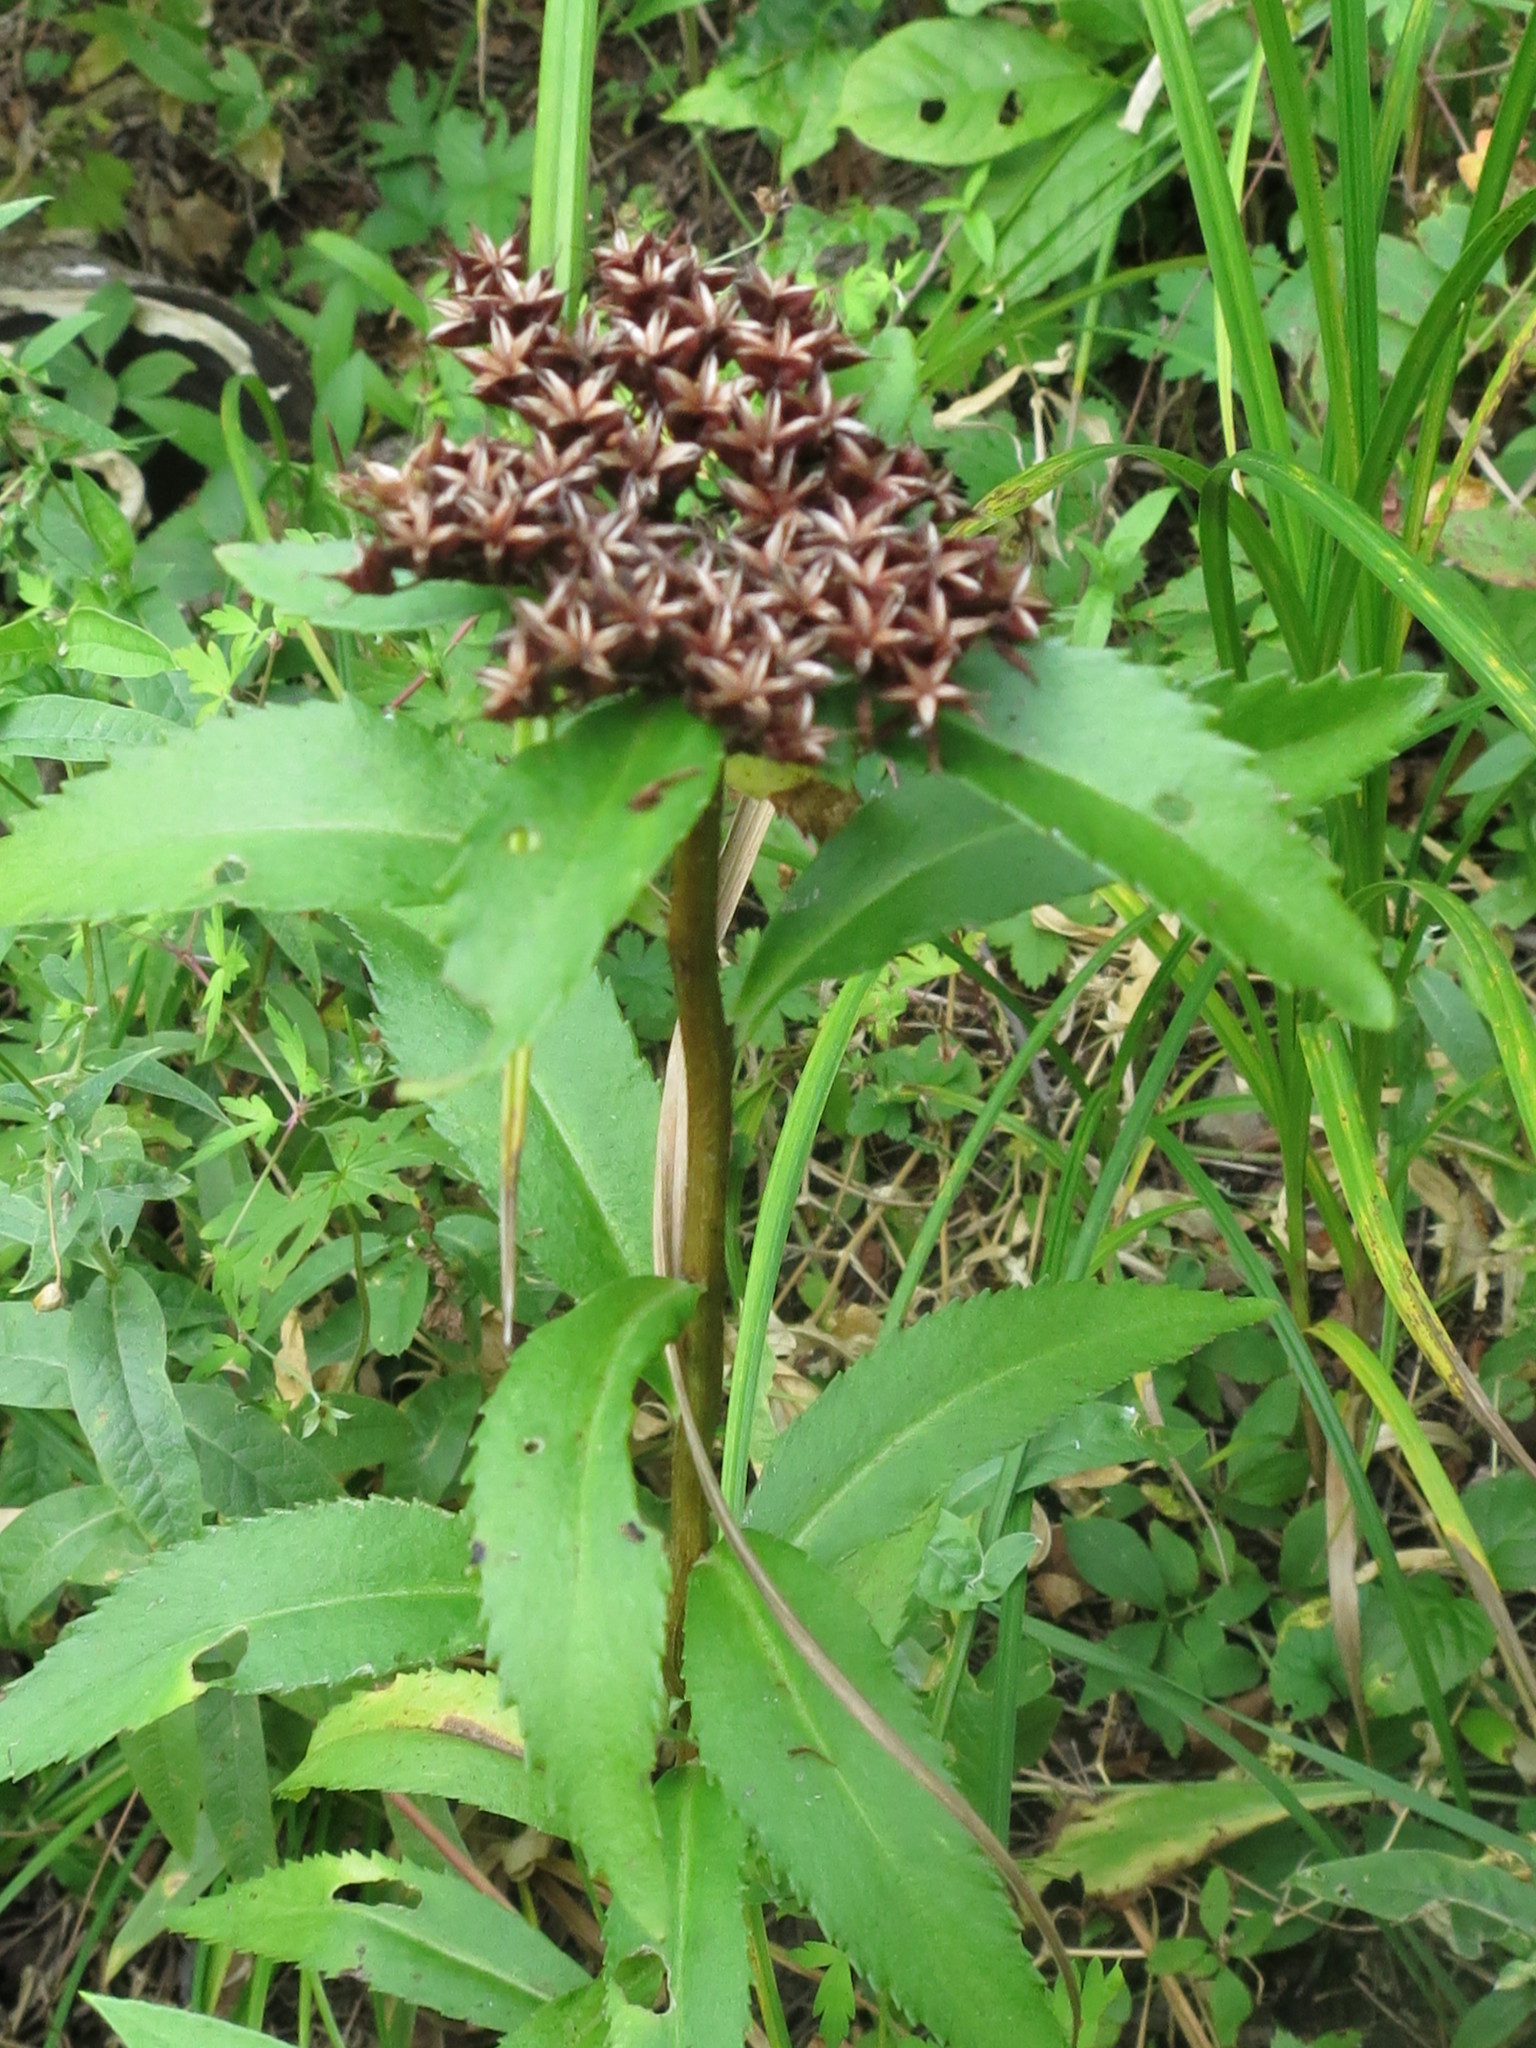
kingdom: Plantae
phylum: Tracheophyta
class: Magnoliopsida
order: Saxifragales
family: Crassulaceae
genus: Phedimus
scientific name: Phedimus aizoon
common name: Orpin aizoon
